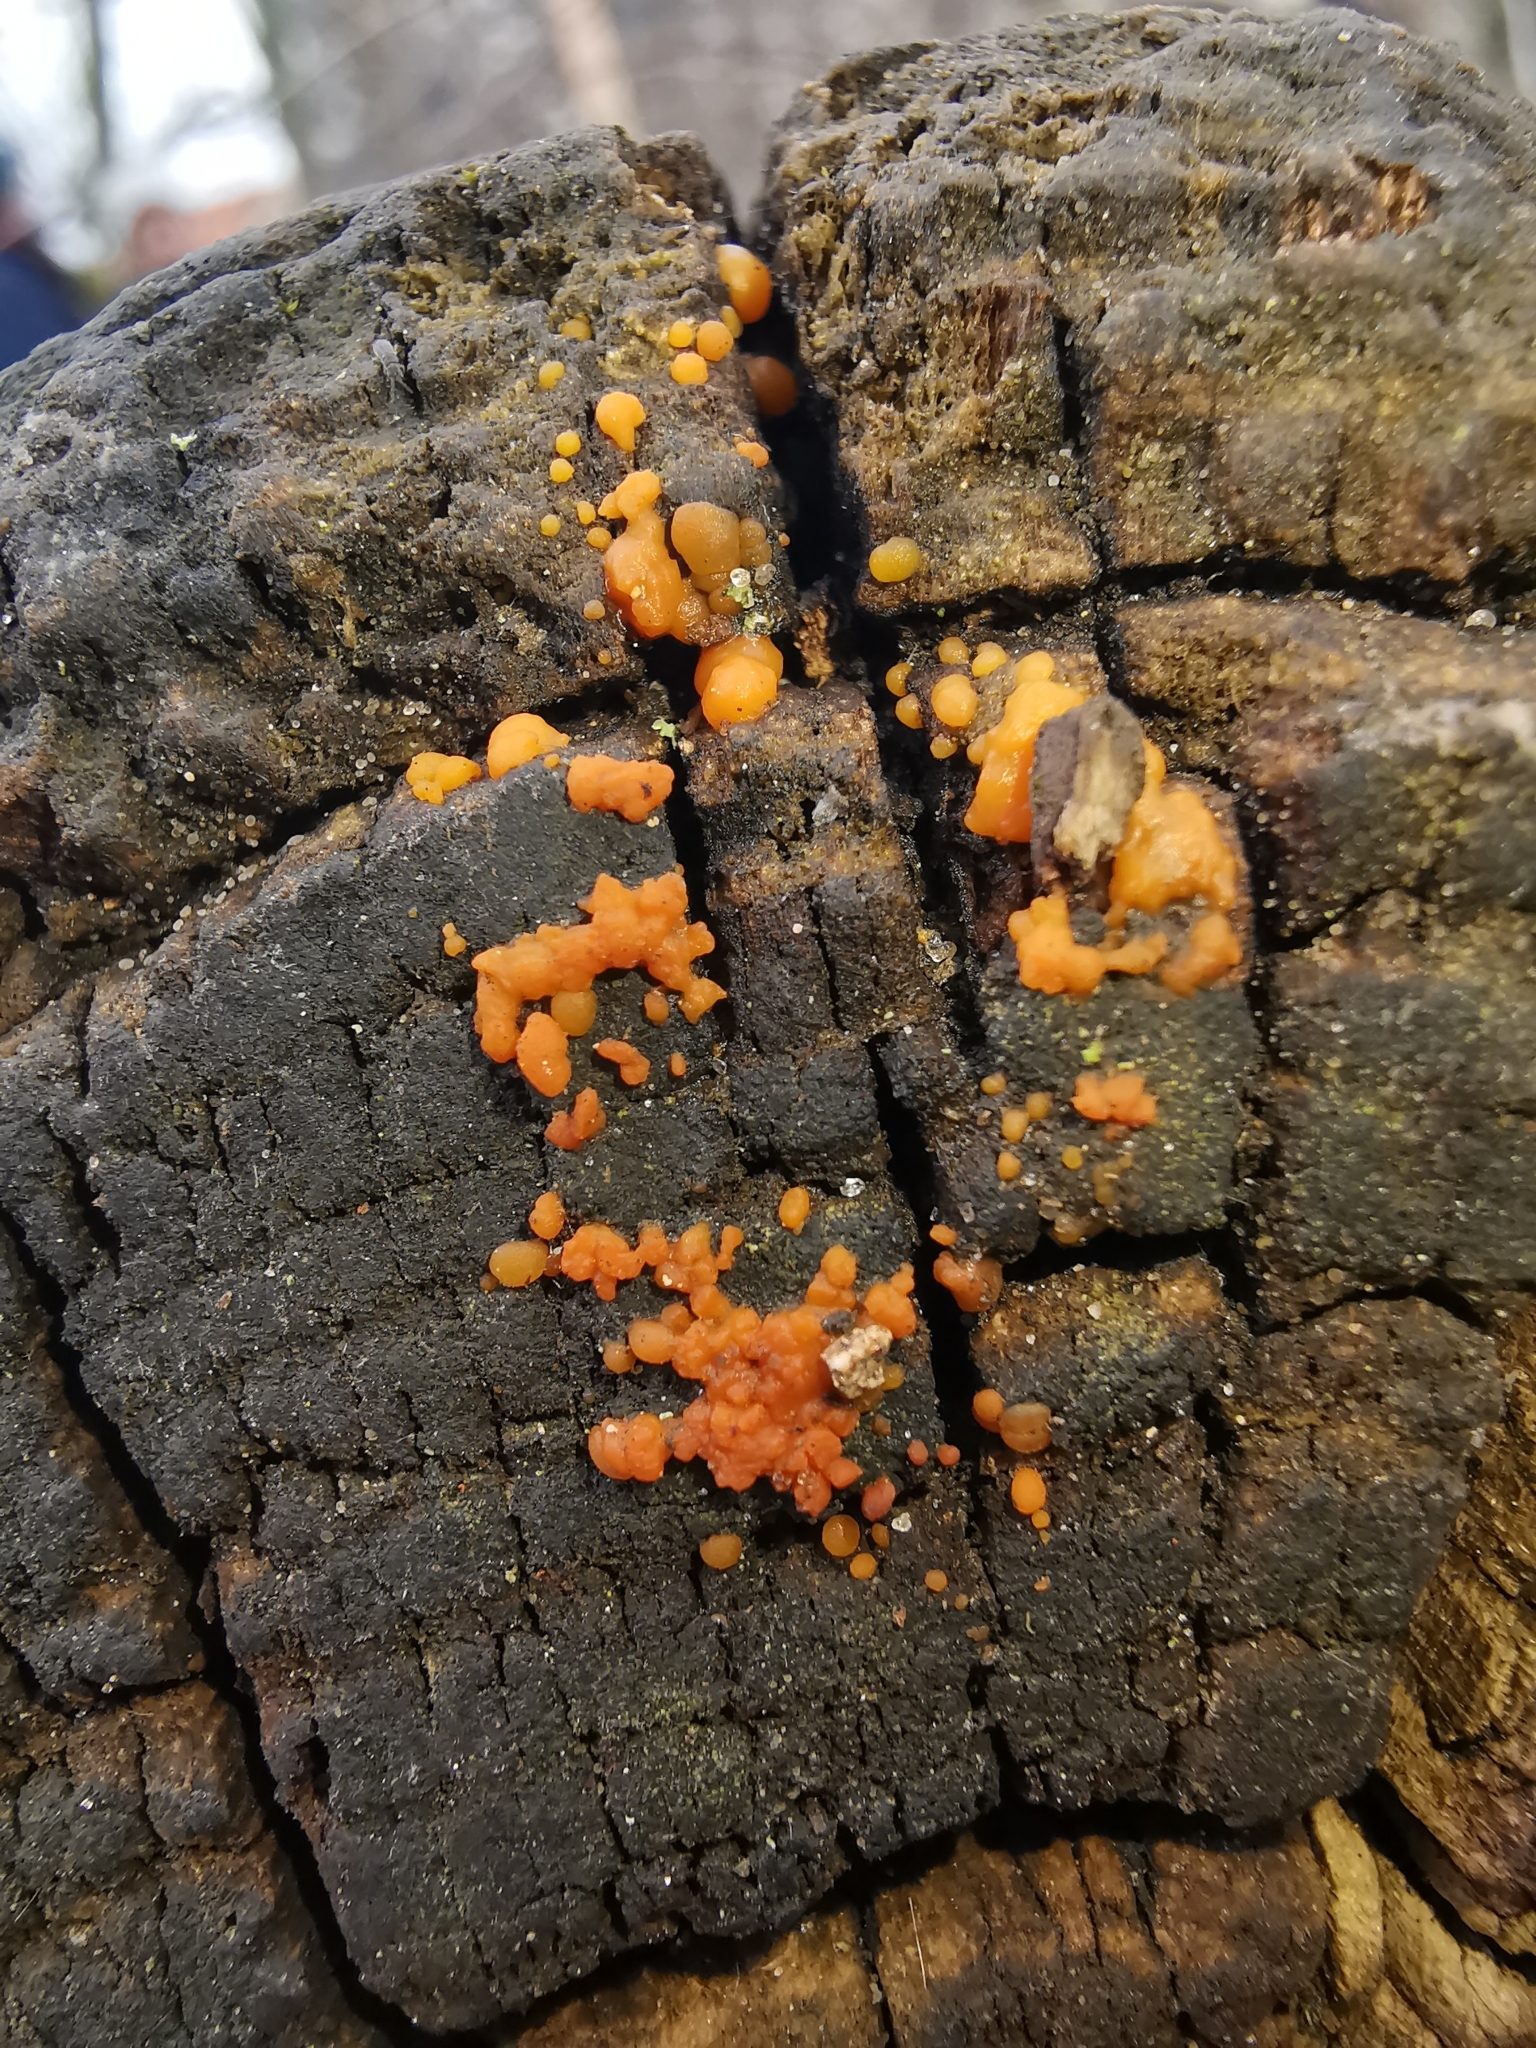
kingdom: Fungi
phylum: Basidiomycota
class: Dacrymycetes
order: Dacrymycetales
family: Dacrymycetaceae
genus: Dacrymyces
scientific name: Dacrymyces stillatus
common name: Common jelly spot
